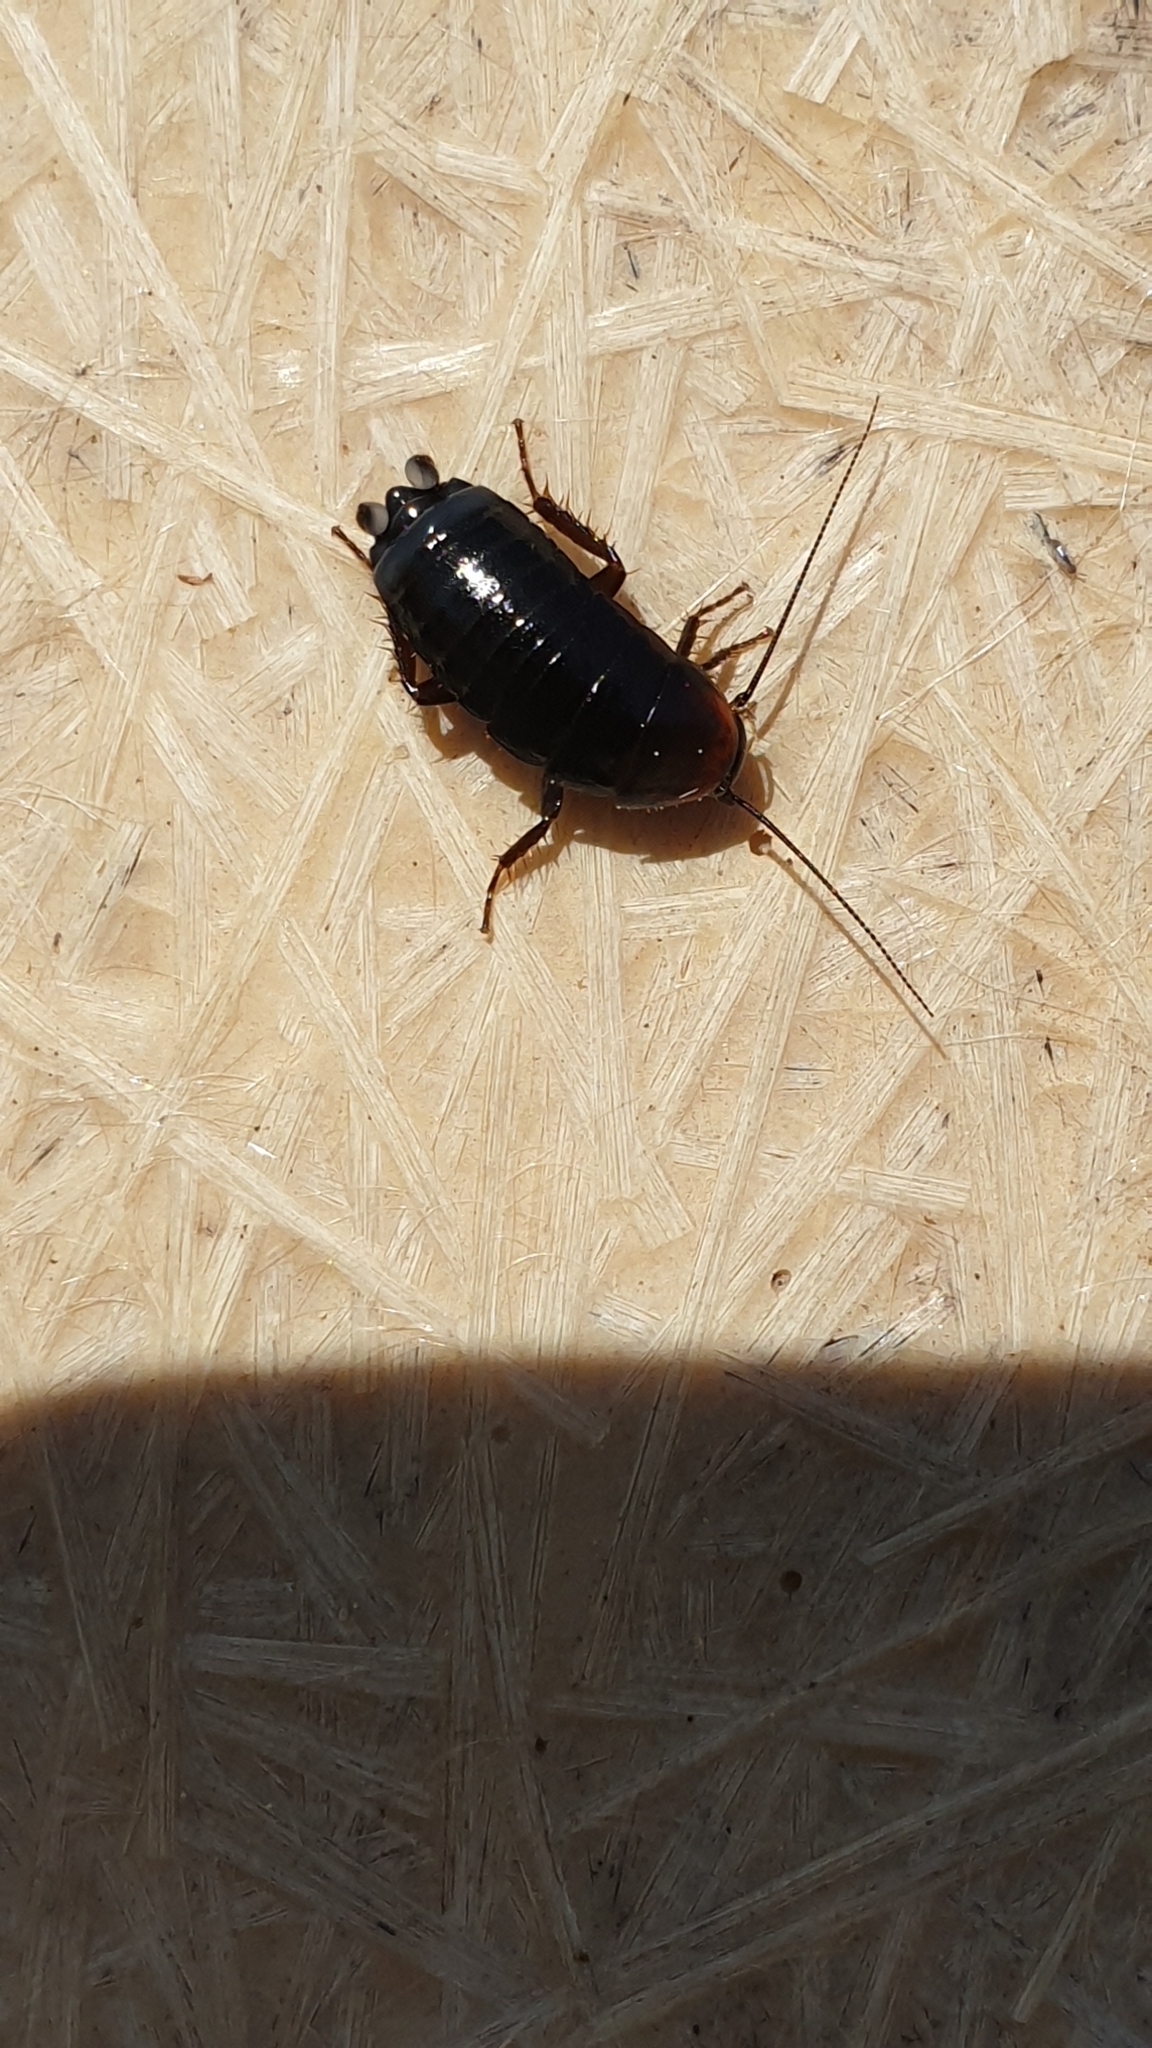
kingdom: Animalia
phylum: Arthropoda
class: Insecta
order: Blattodea
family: Blattidae
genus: Blatta
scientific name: Blatta orientalis
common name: Oriental cockroach
